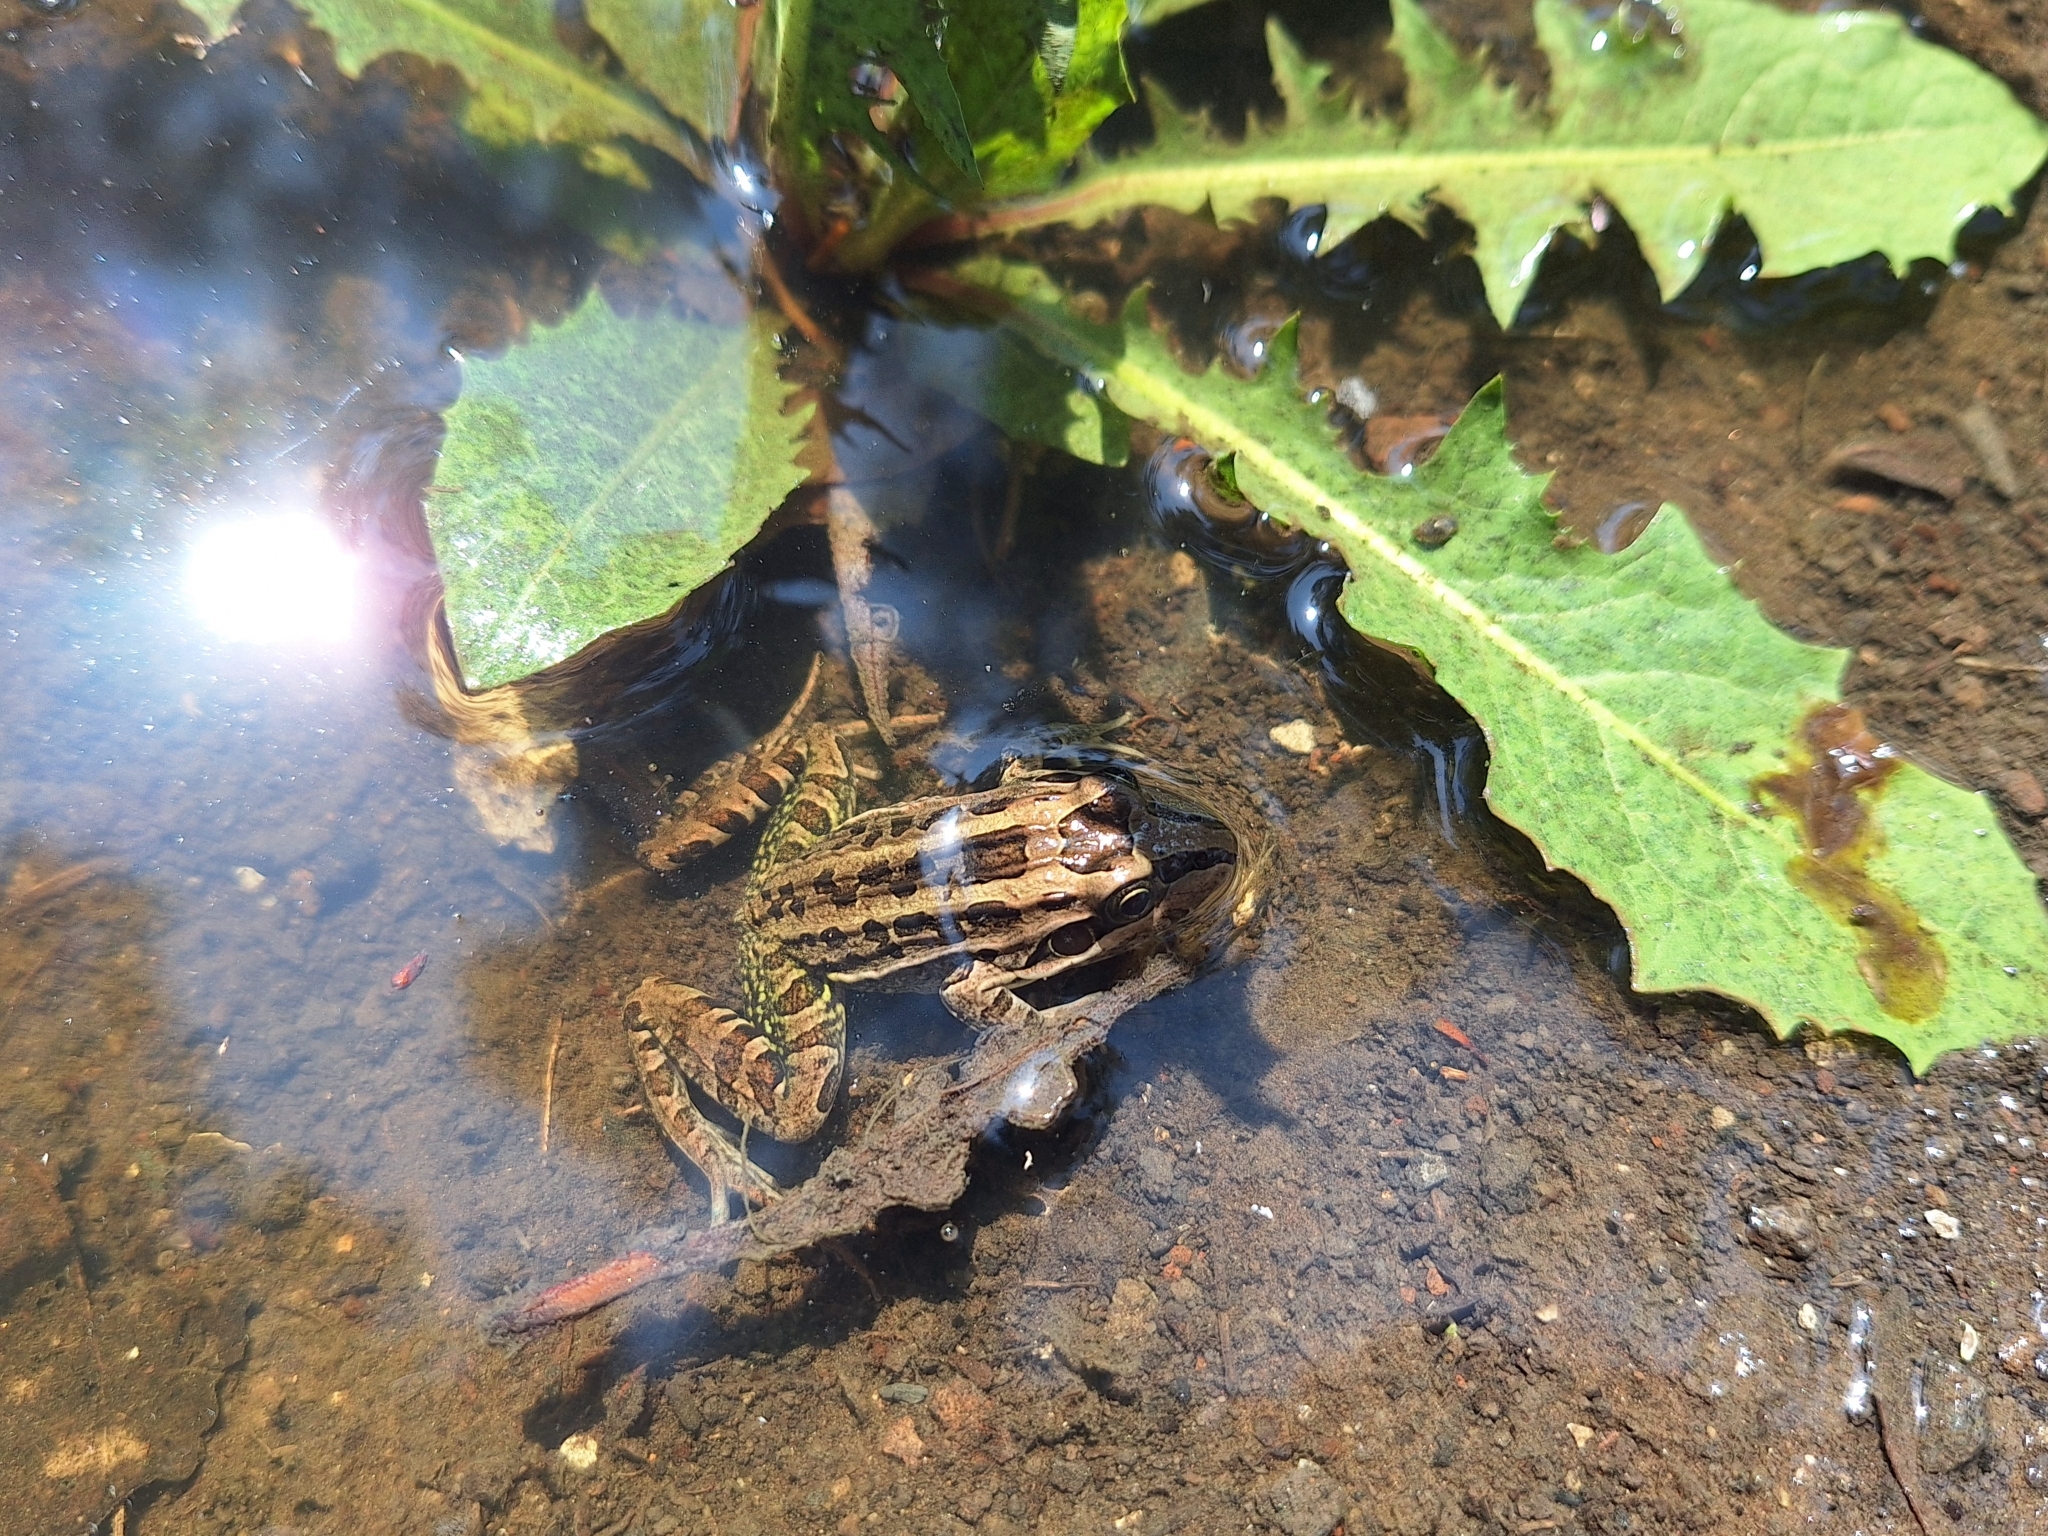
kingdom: Animalia
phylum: Chordata
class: Amphibia
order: Anura
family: Leptodactylidae
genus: Leptodactylus
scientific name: Leptodactylus luctator
